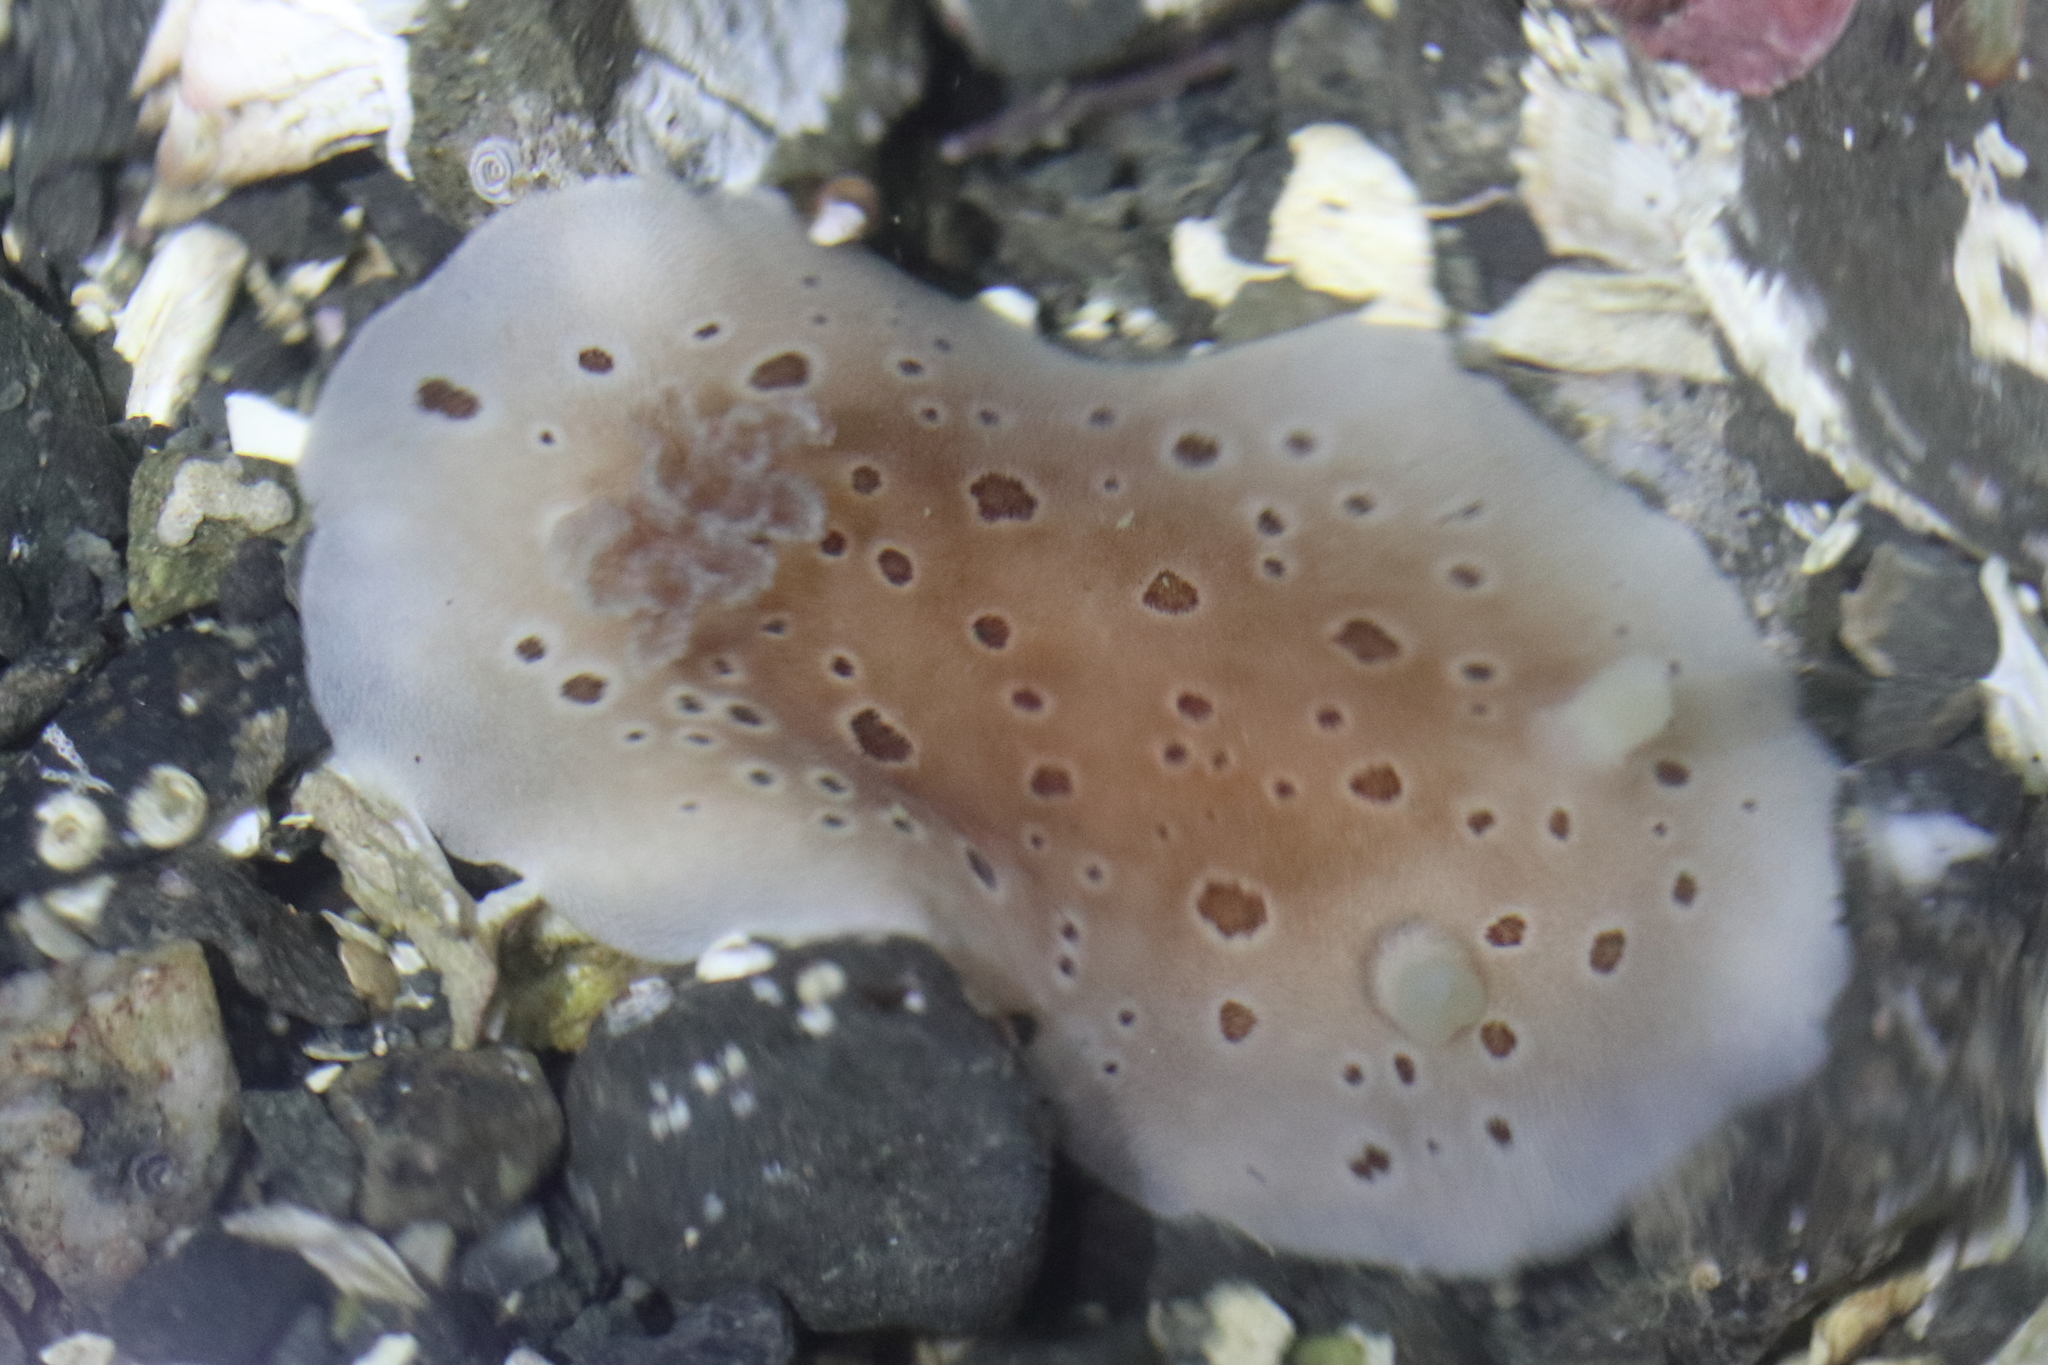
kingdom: Animalia
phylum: Mollusca
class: Gastropoda
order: Nudibranchia
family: Discodorididae
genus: Diaulula
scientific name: Diaulula odonoghuei
